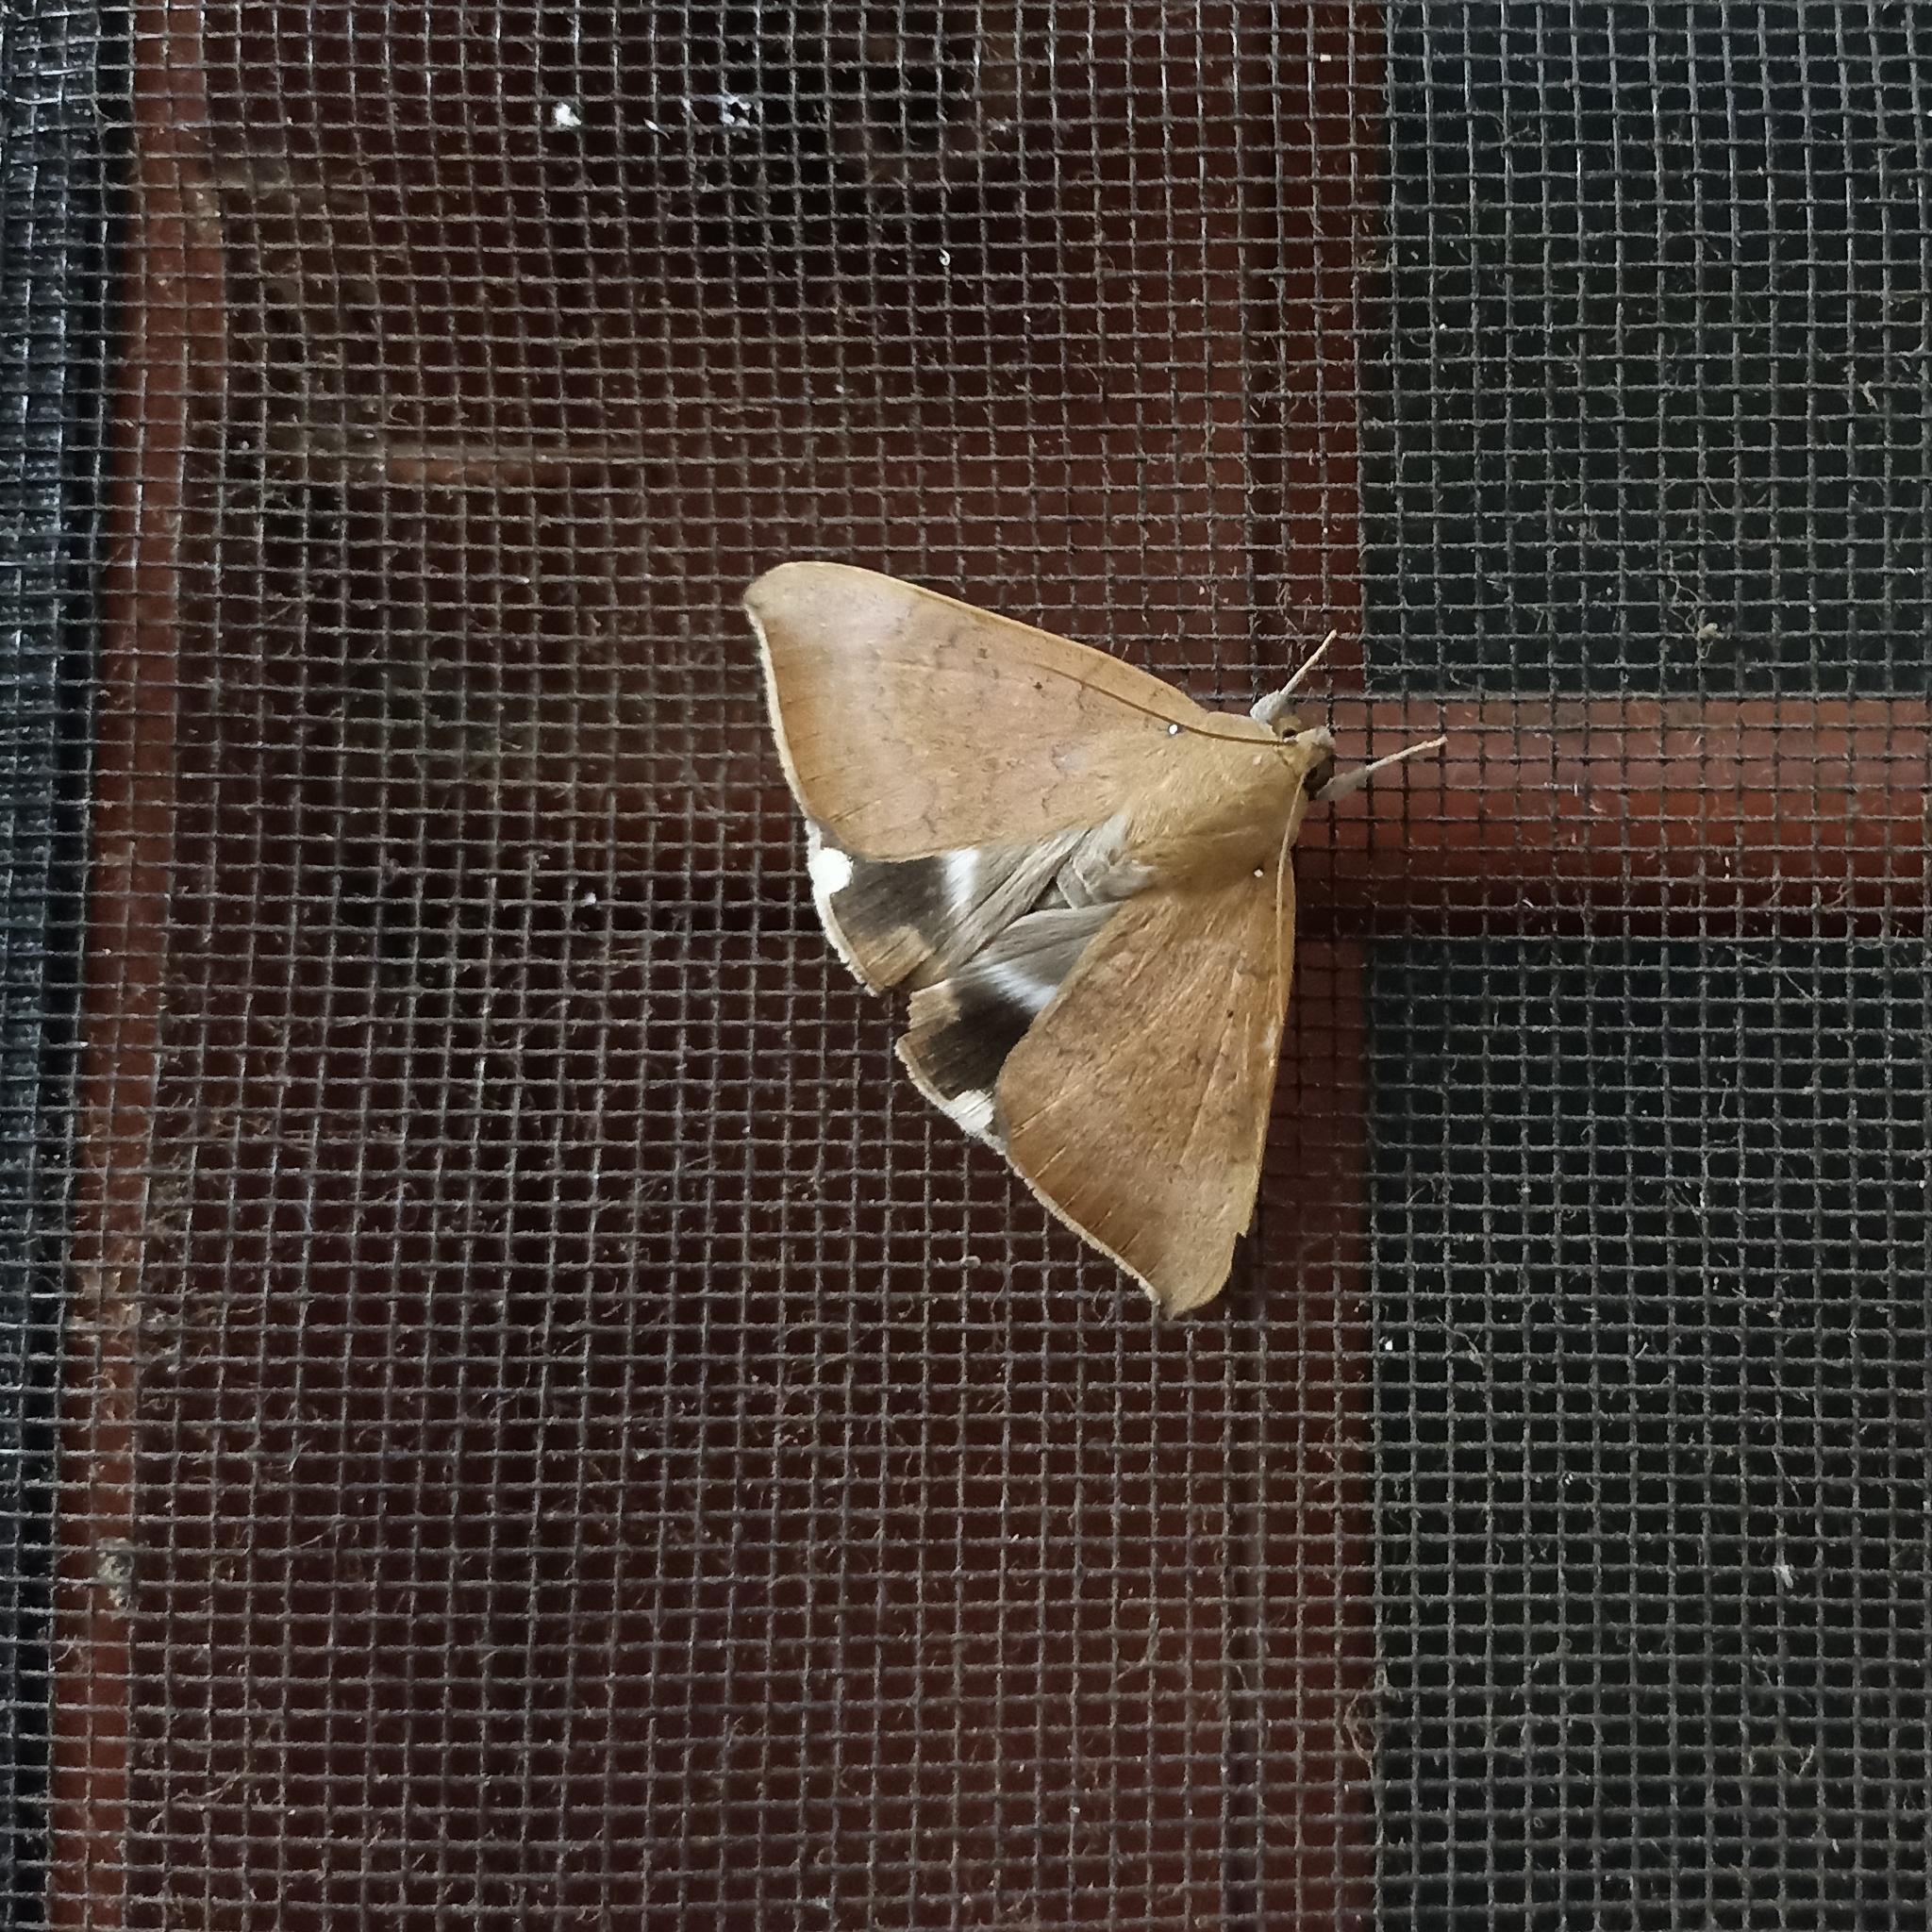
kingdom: Animalia
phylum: Arthropoda
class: Insecta
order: Lepidoptera
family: Erebidae
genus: Achaea
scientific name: Achaea serva
